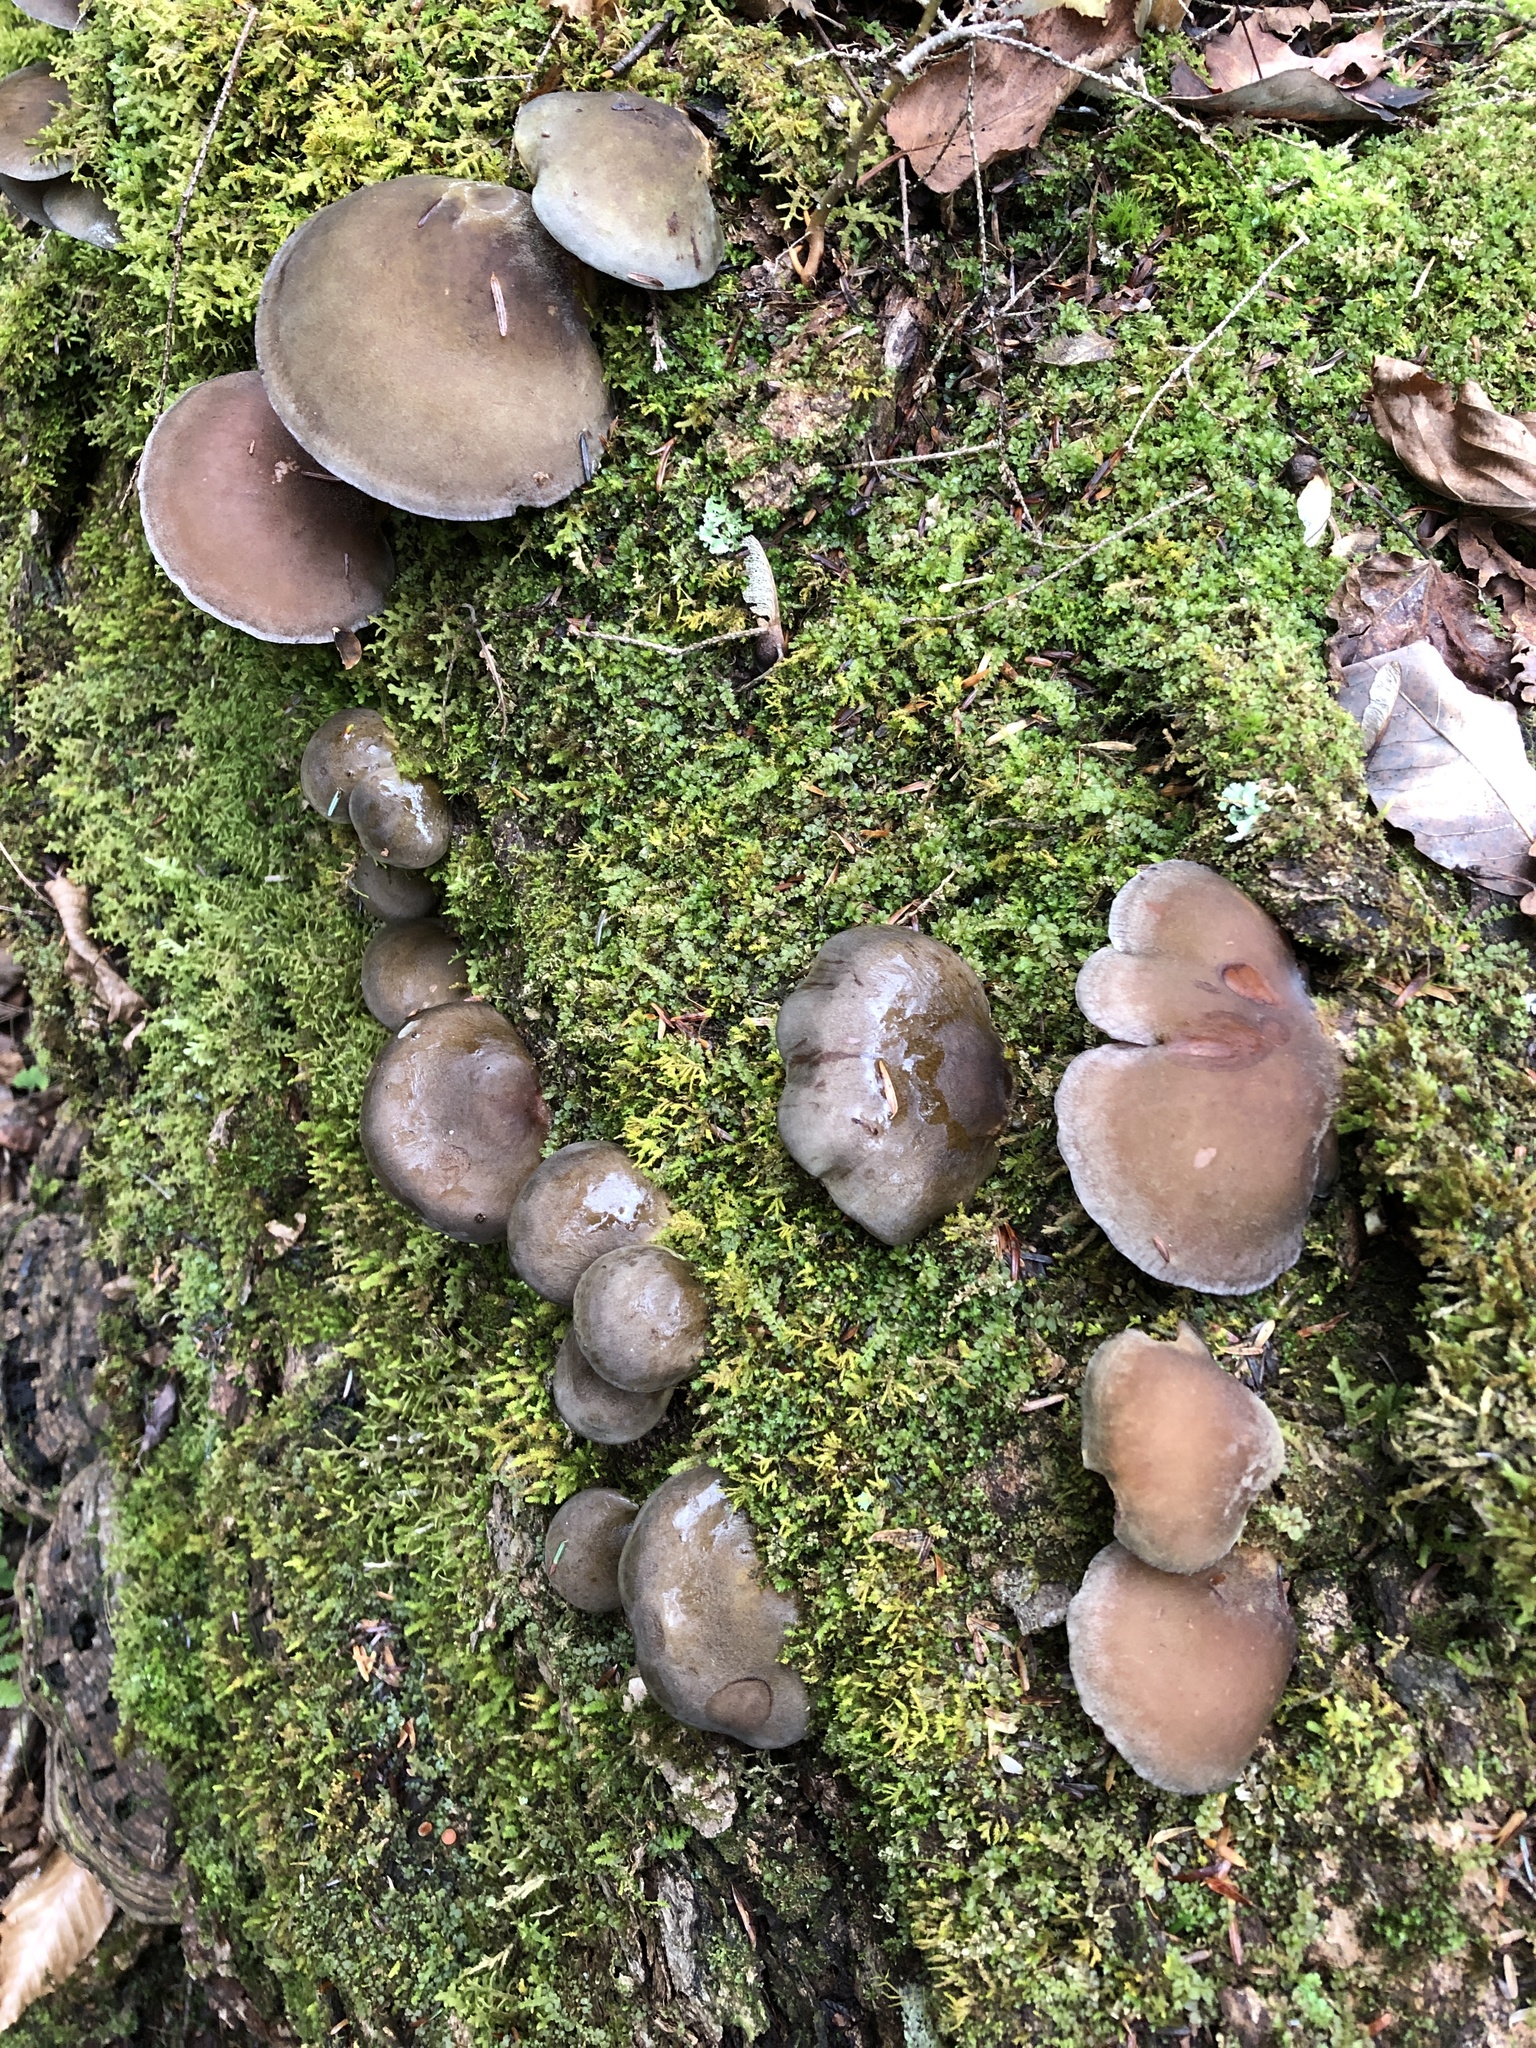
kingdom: Fungi
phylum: Basidiomycota
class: Agaricomycetes
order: Agaricales
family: Sarcomyxaceae
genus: Sarcomyxa
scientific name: Sarcomyxa serotina
